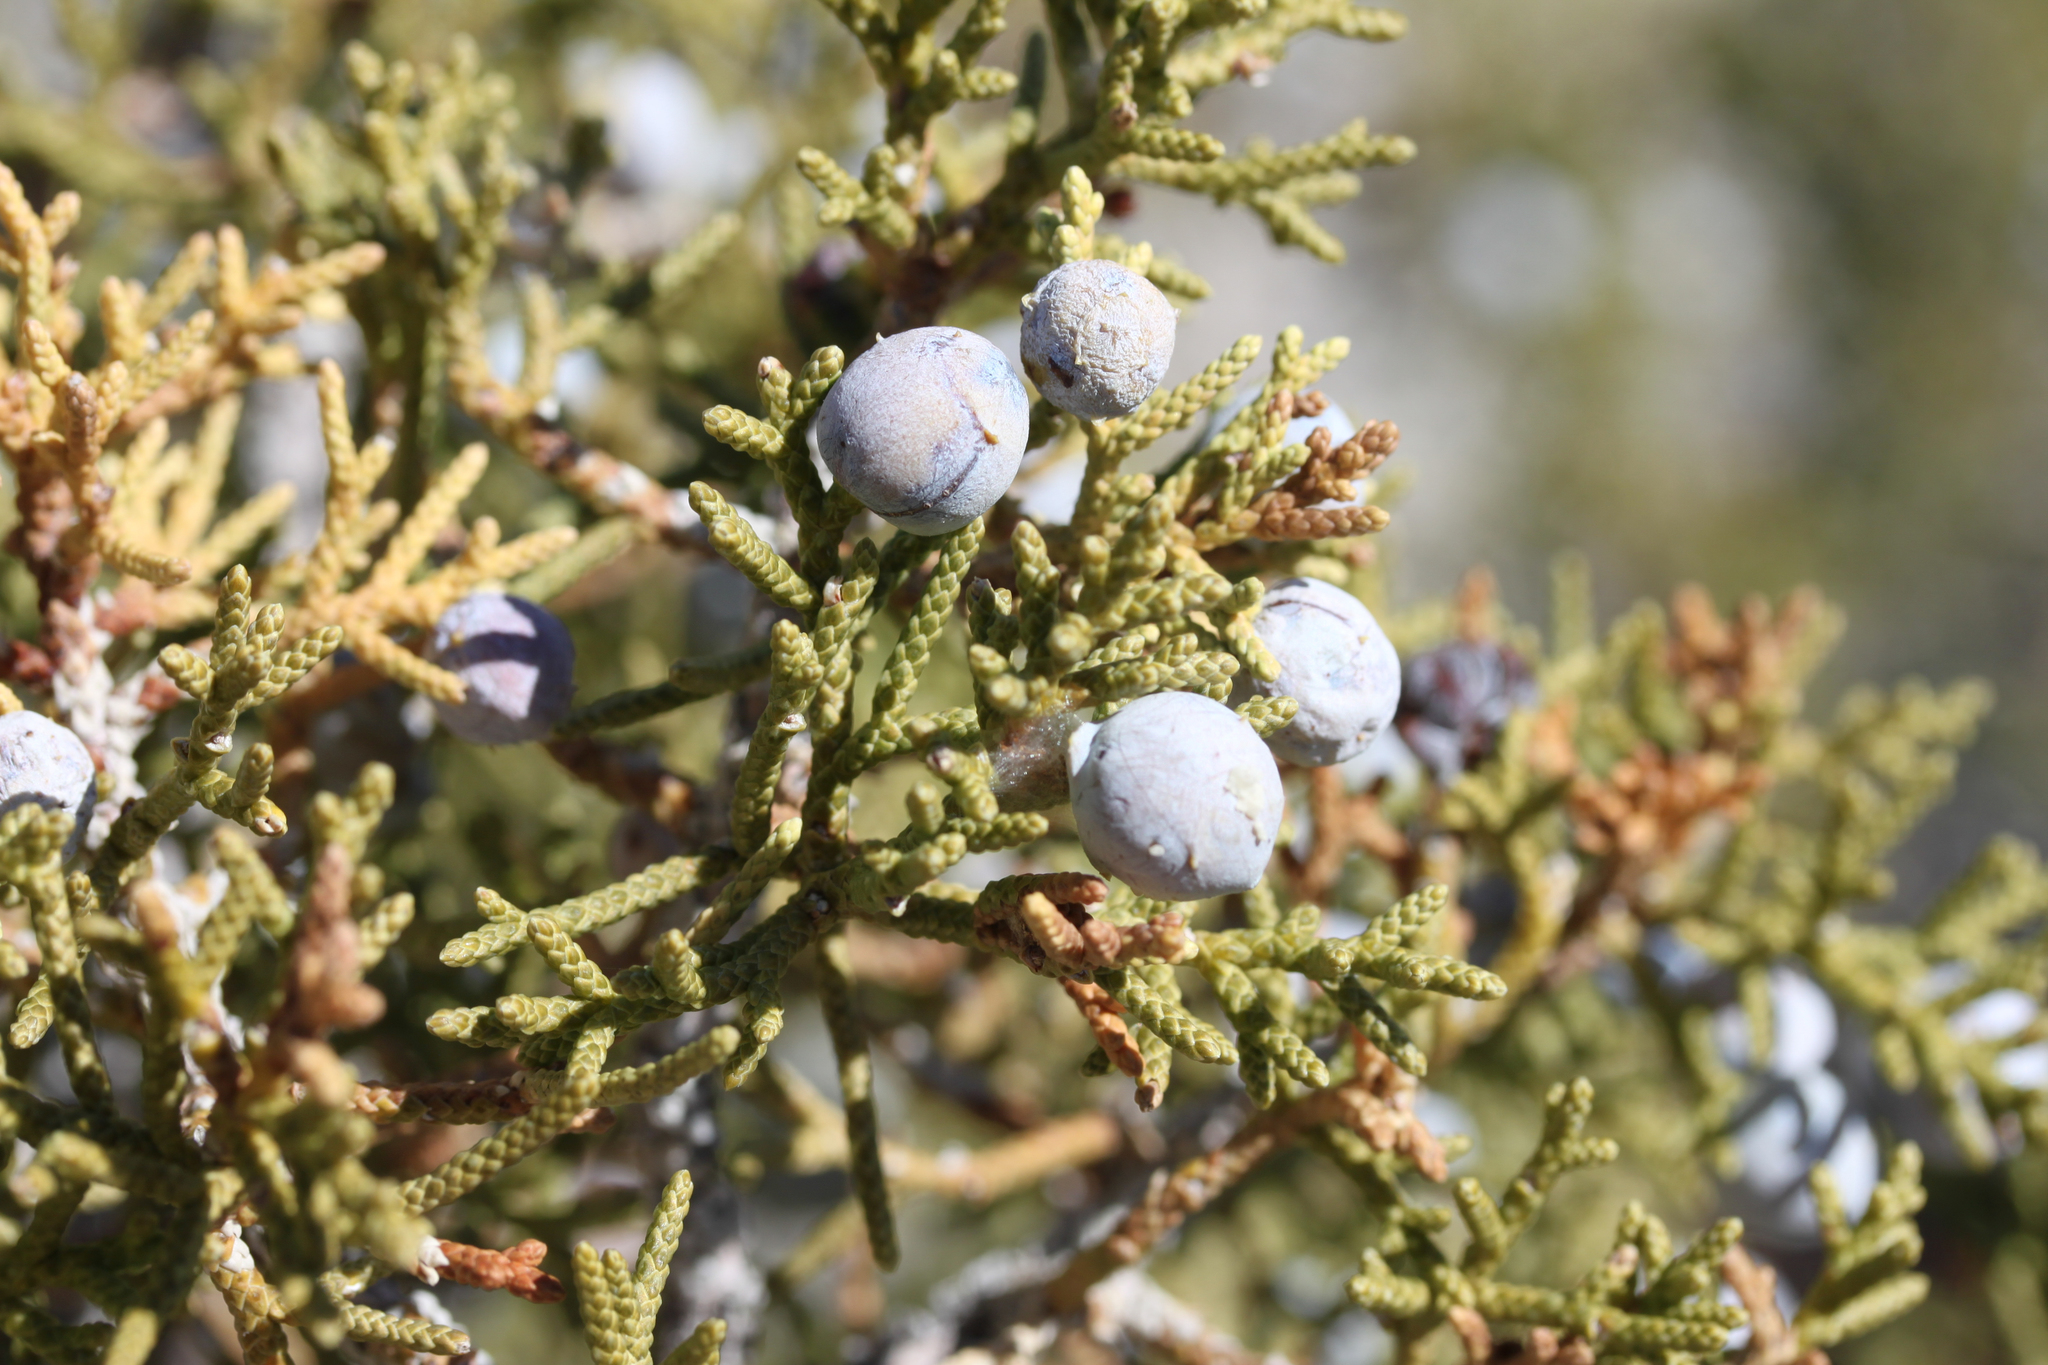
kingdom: Plantae
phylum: Tracheophyta
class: Pinopsida
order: Pinales
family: Cupressaceae
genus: Juniperus
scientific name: Juniperus californica
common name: California juniper
